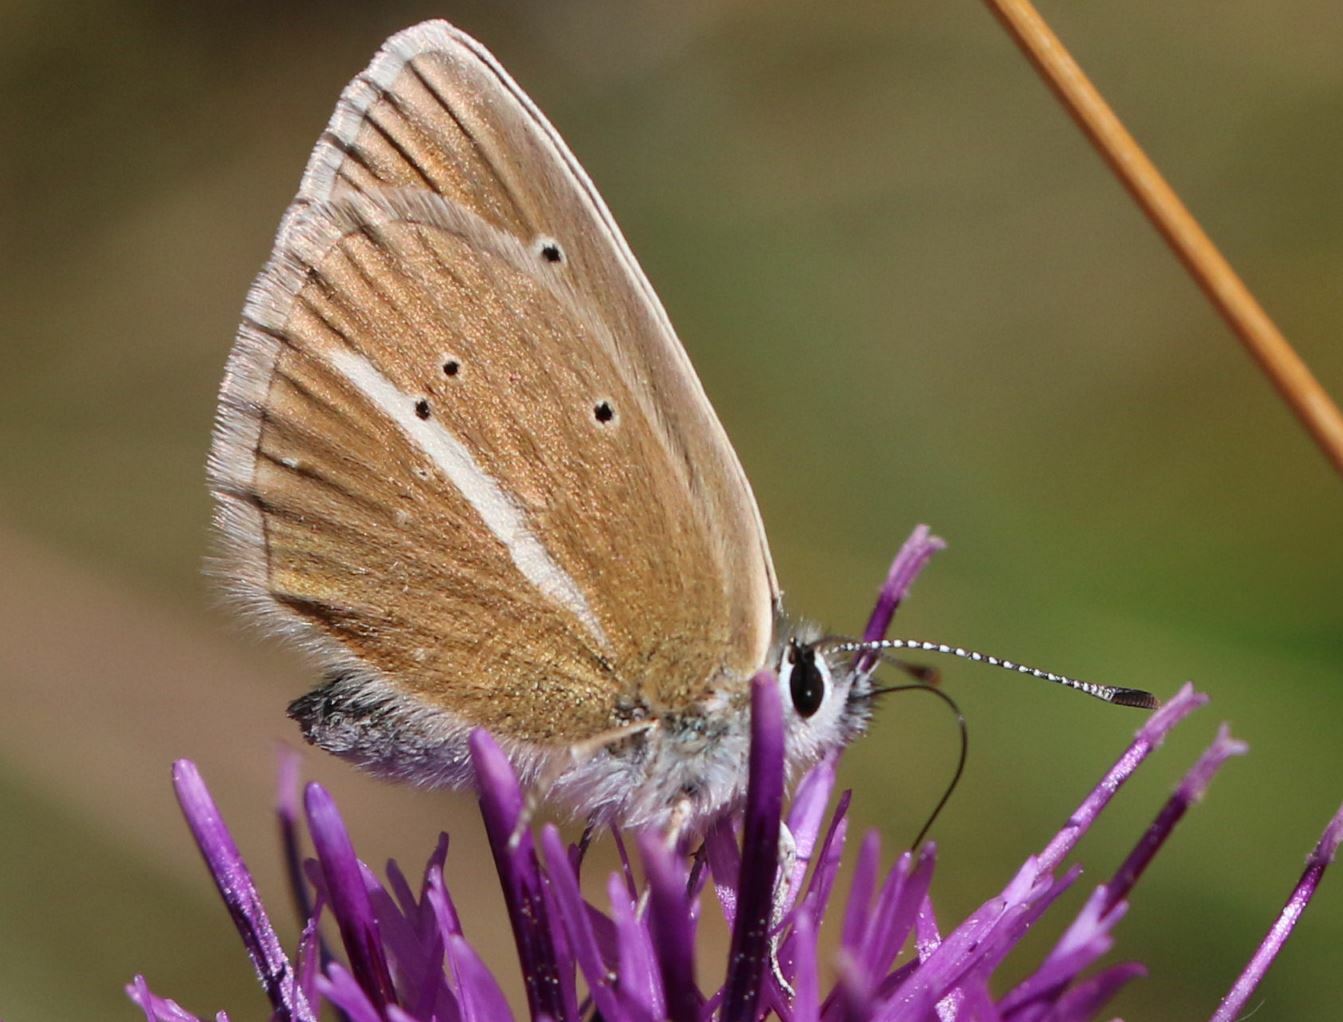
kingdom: Animalia
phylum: Arthropoda
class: Insecta
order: Lepidoptera
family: Lycaenidae
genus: Agrodiaetus
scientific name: Agrodiaetus damon
